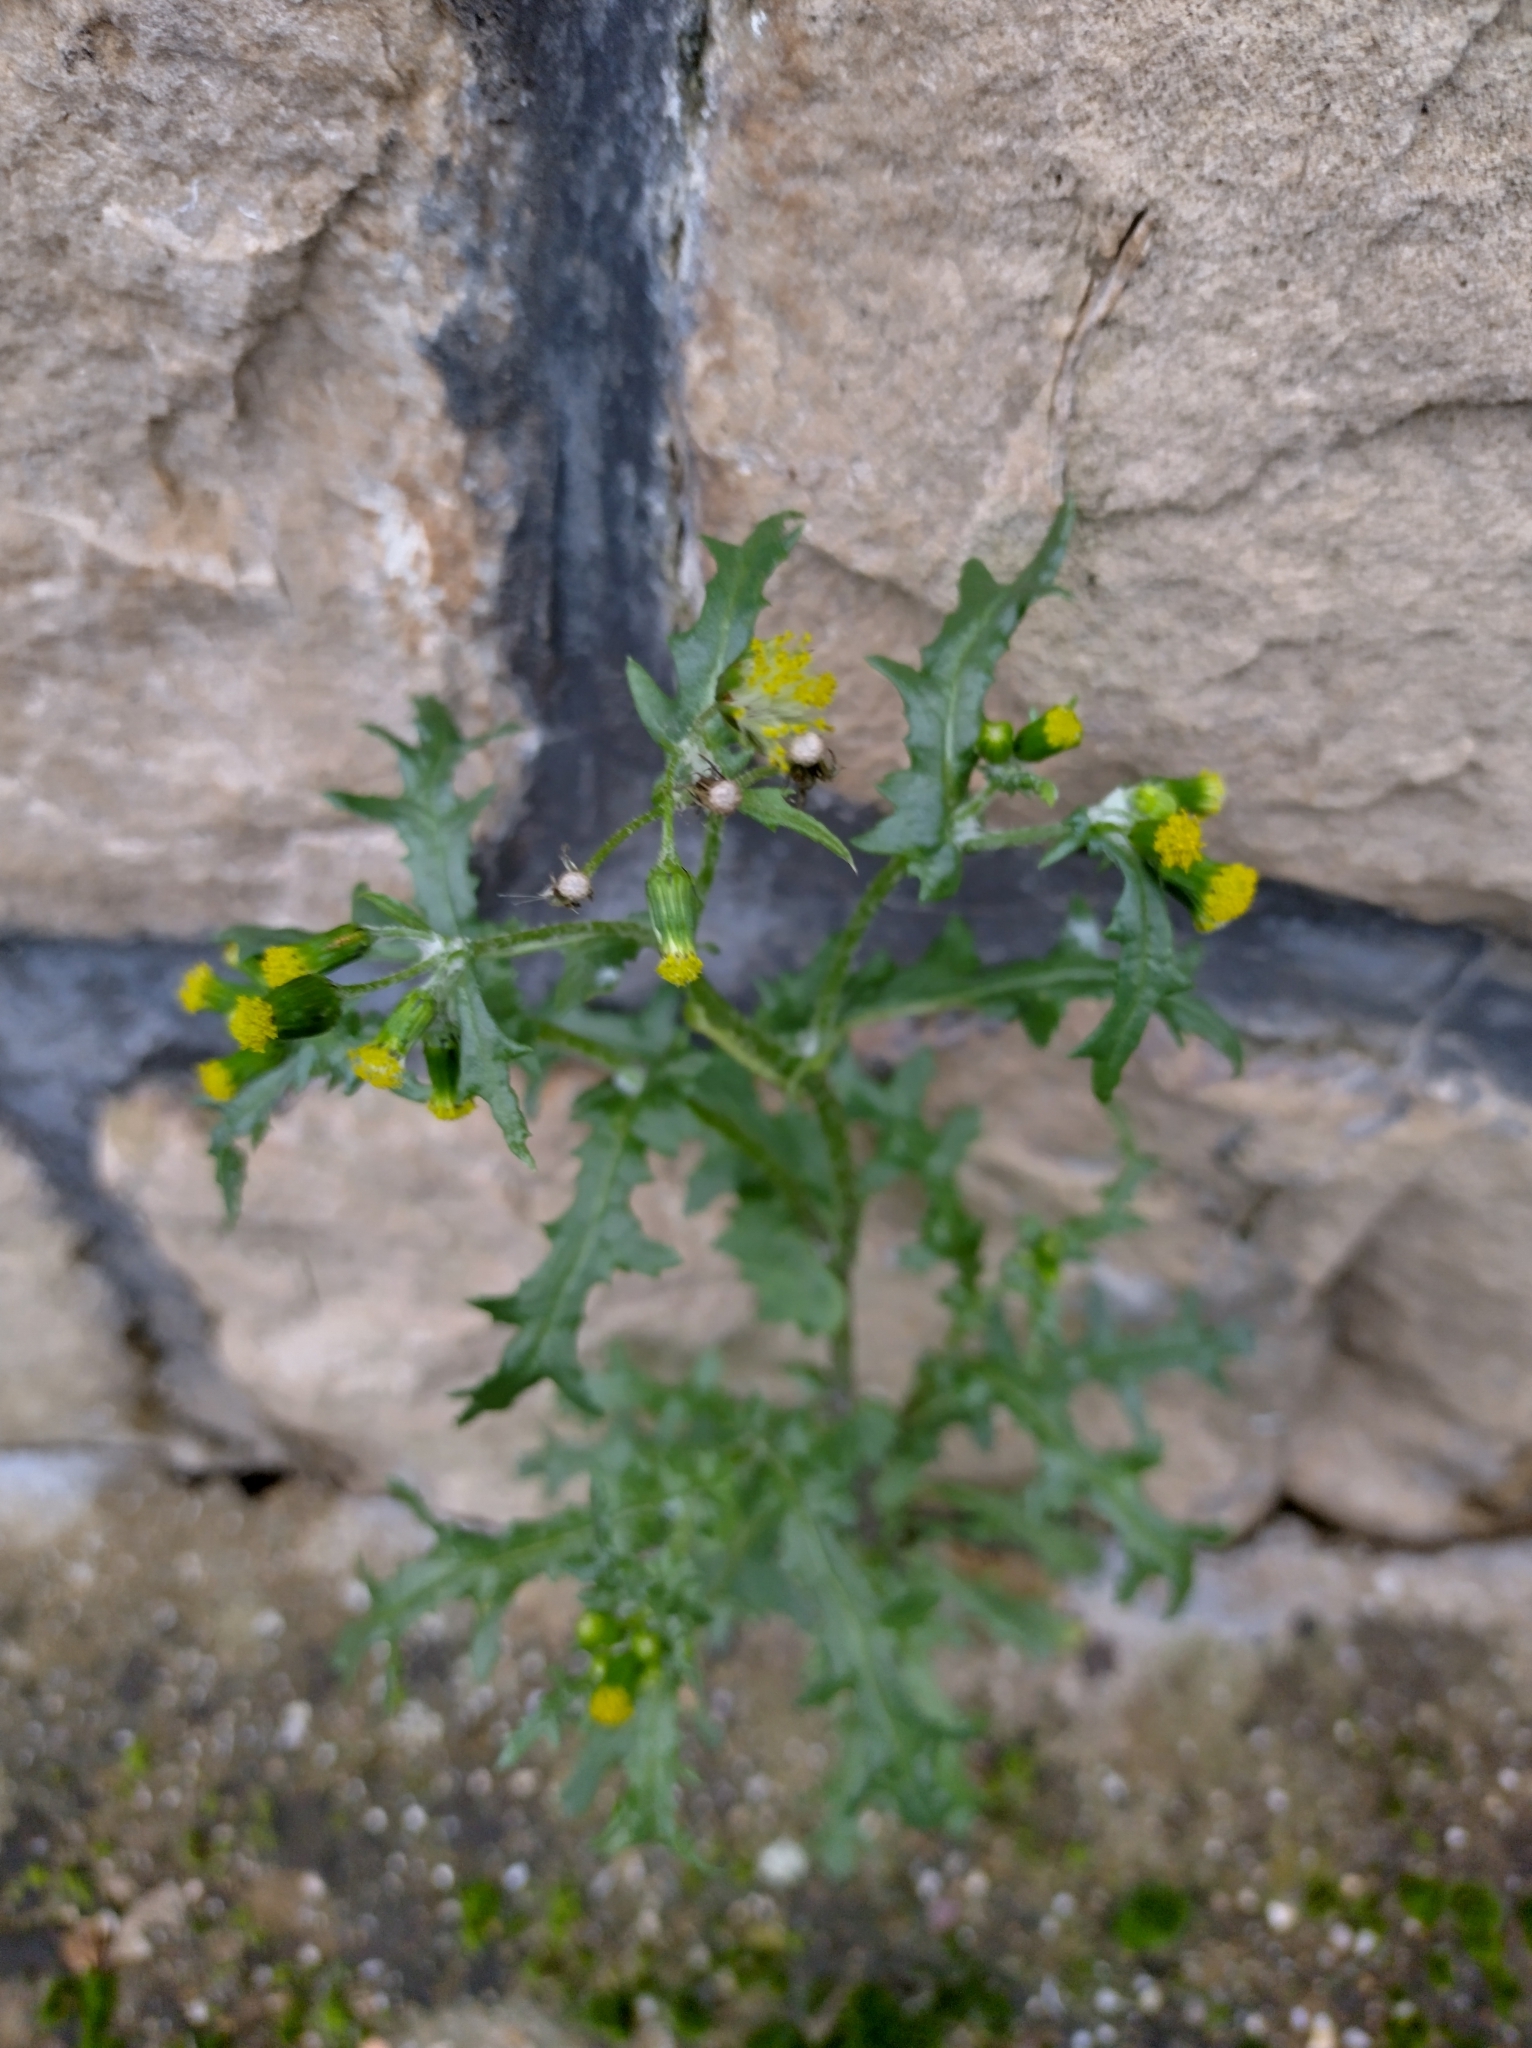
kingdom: Plantae
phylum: Tracheophyta
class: Magnoliopsida
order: Asterales
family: Asteraceae
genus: Senecio
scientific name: Senecio vulgaris
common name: Old-man-in-the-spring
